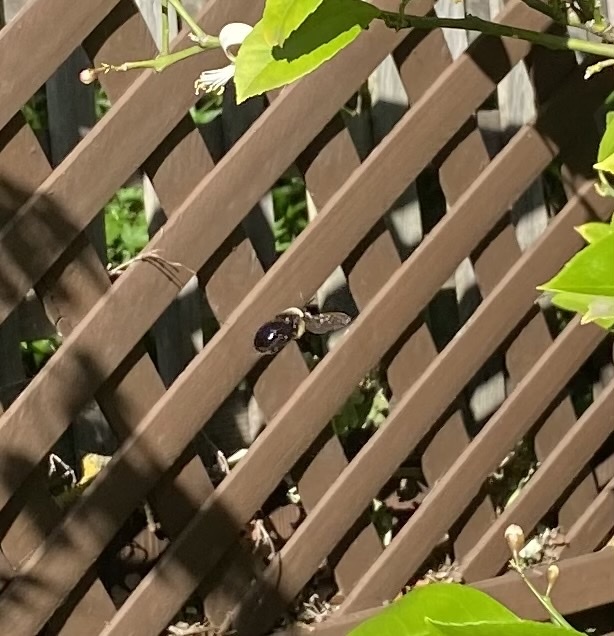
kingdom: Animalia
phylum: Arthropoda
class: Insecta
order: Hymenoptera
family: Apidae
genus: Xylocopa
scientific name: Xylocopa tabaniformis
